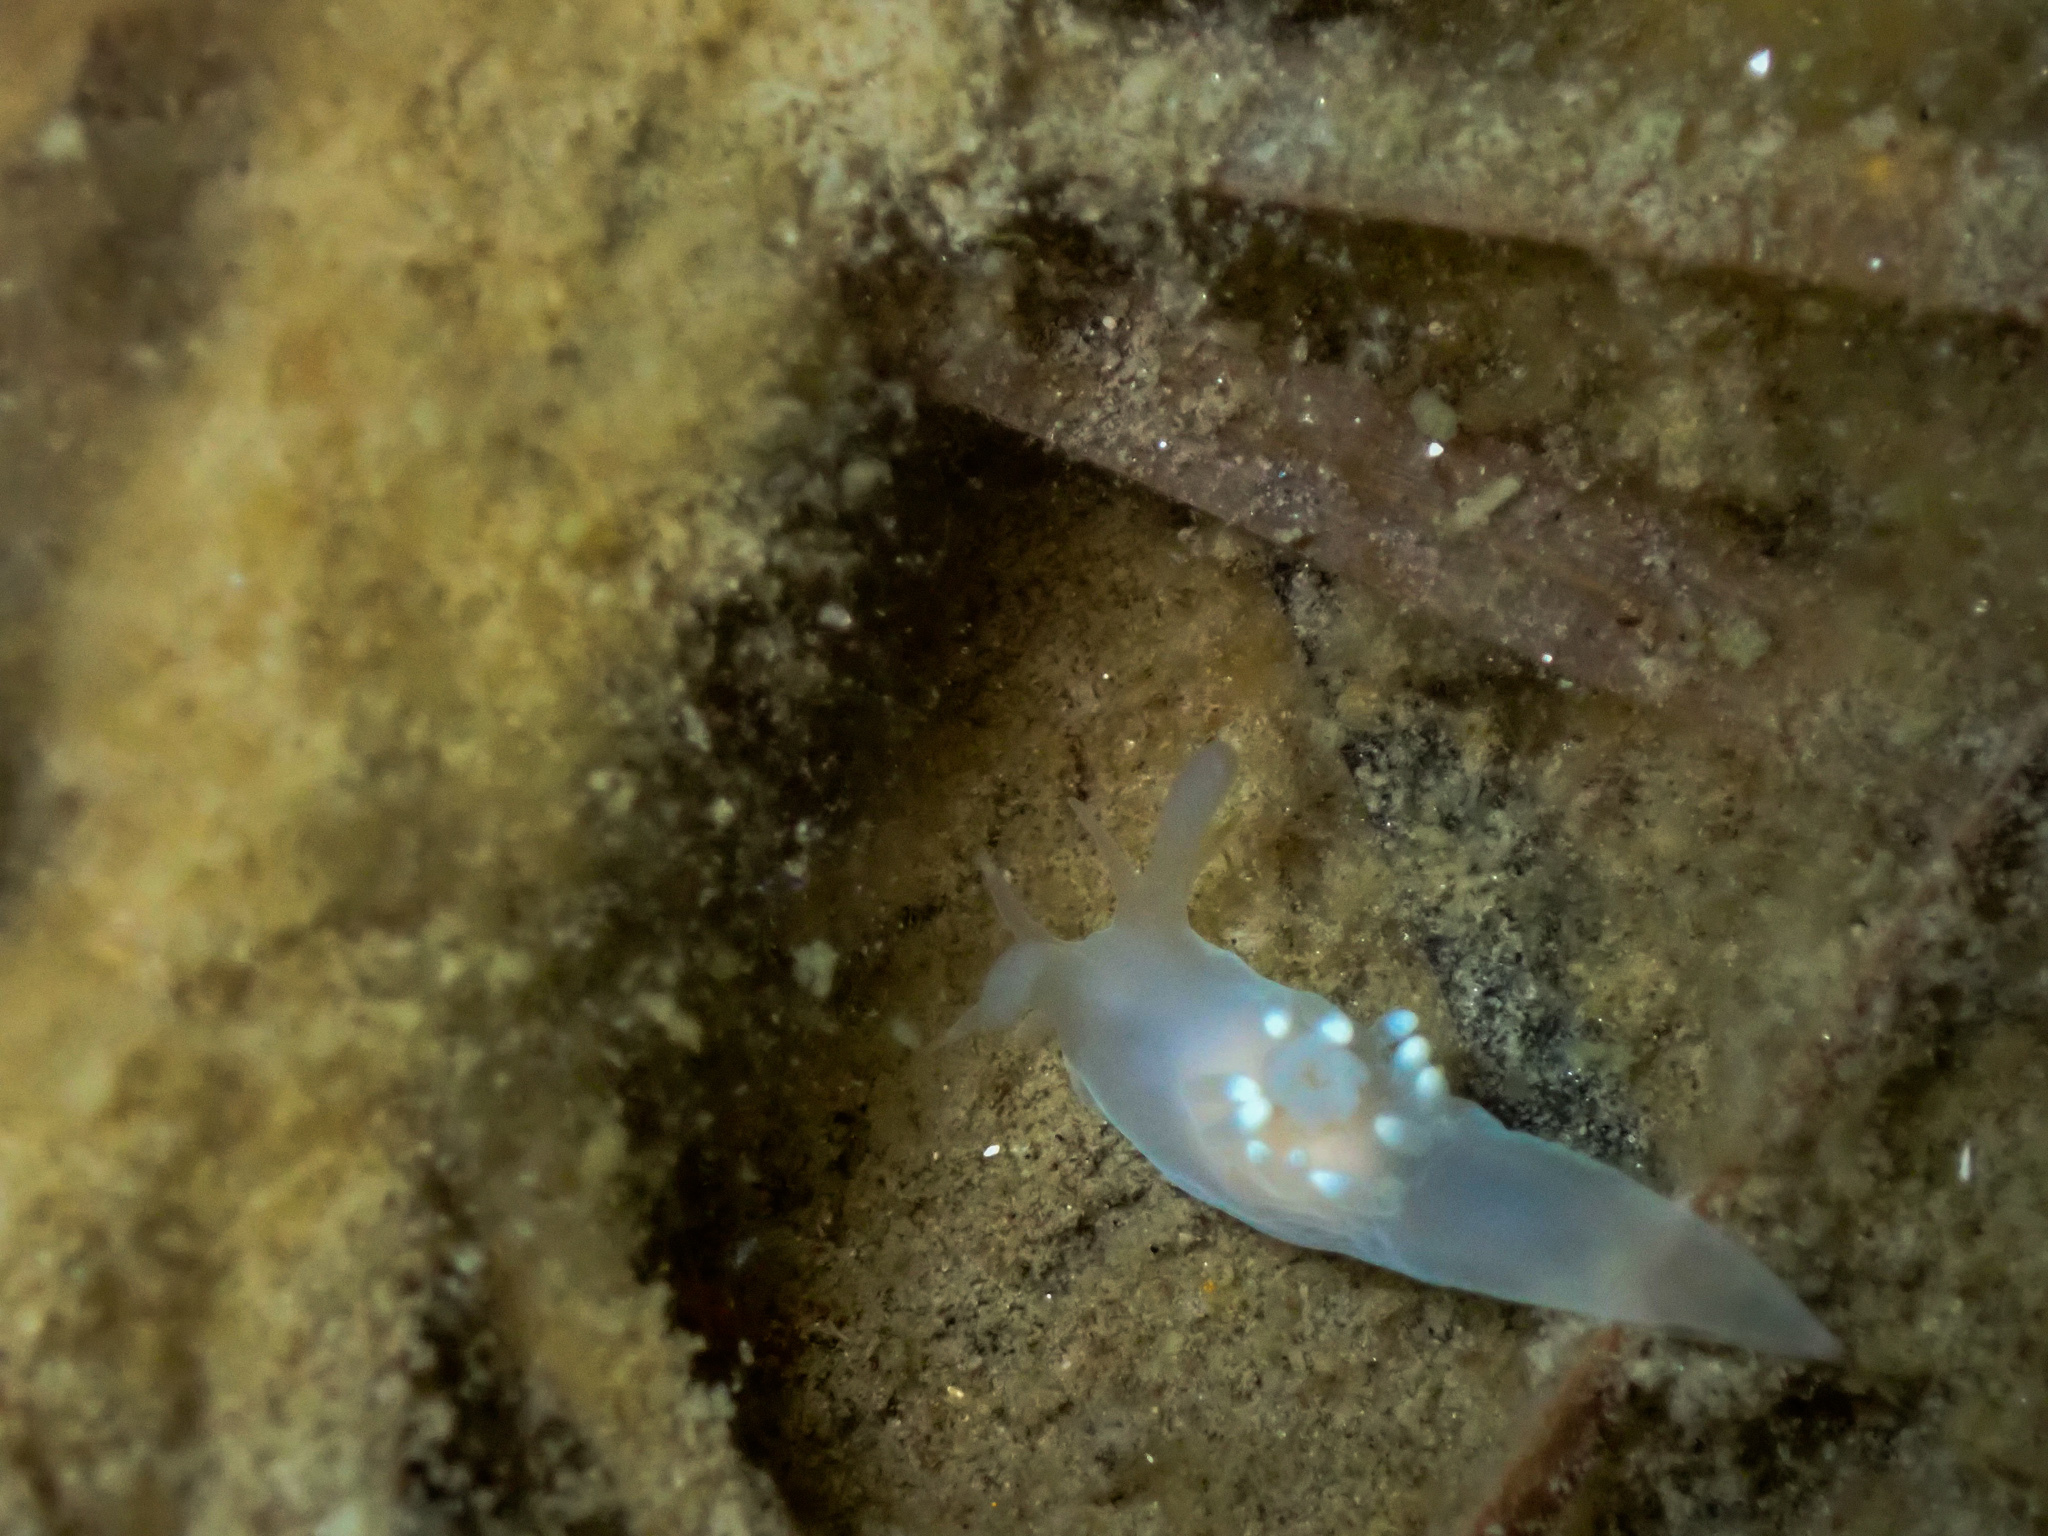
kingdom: Animalia
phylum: Mollusca
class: Gastropoda
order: Nudibranchia
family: Goniodorididae
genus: Ancula
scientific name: Ancula gibbosa
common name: Atlantic ancula
